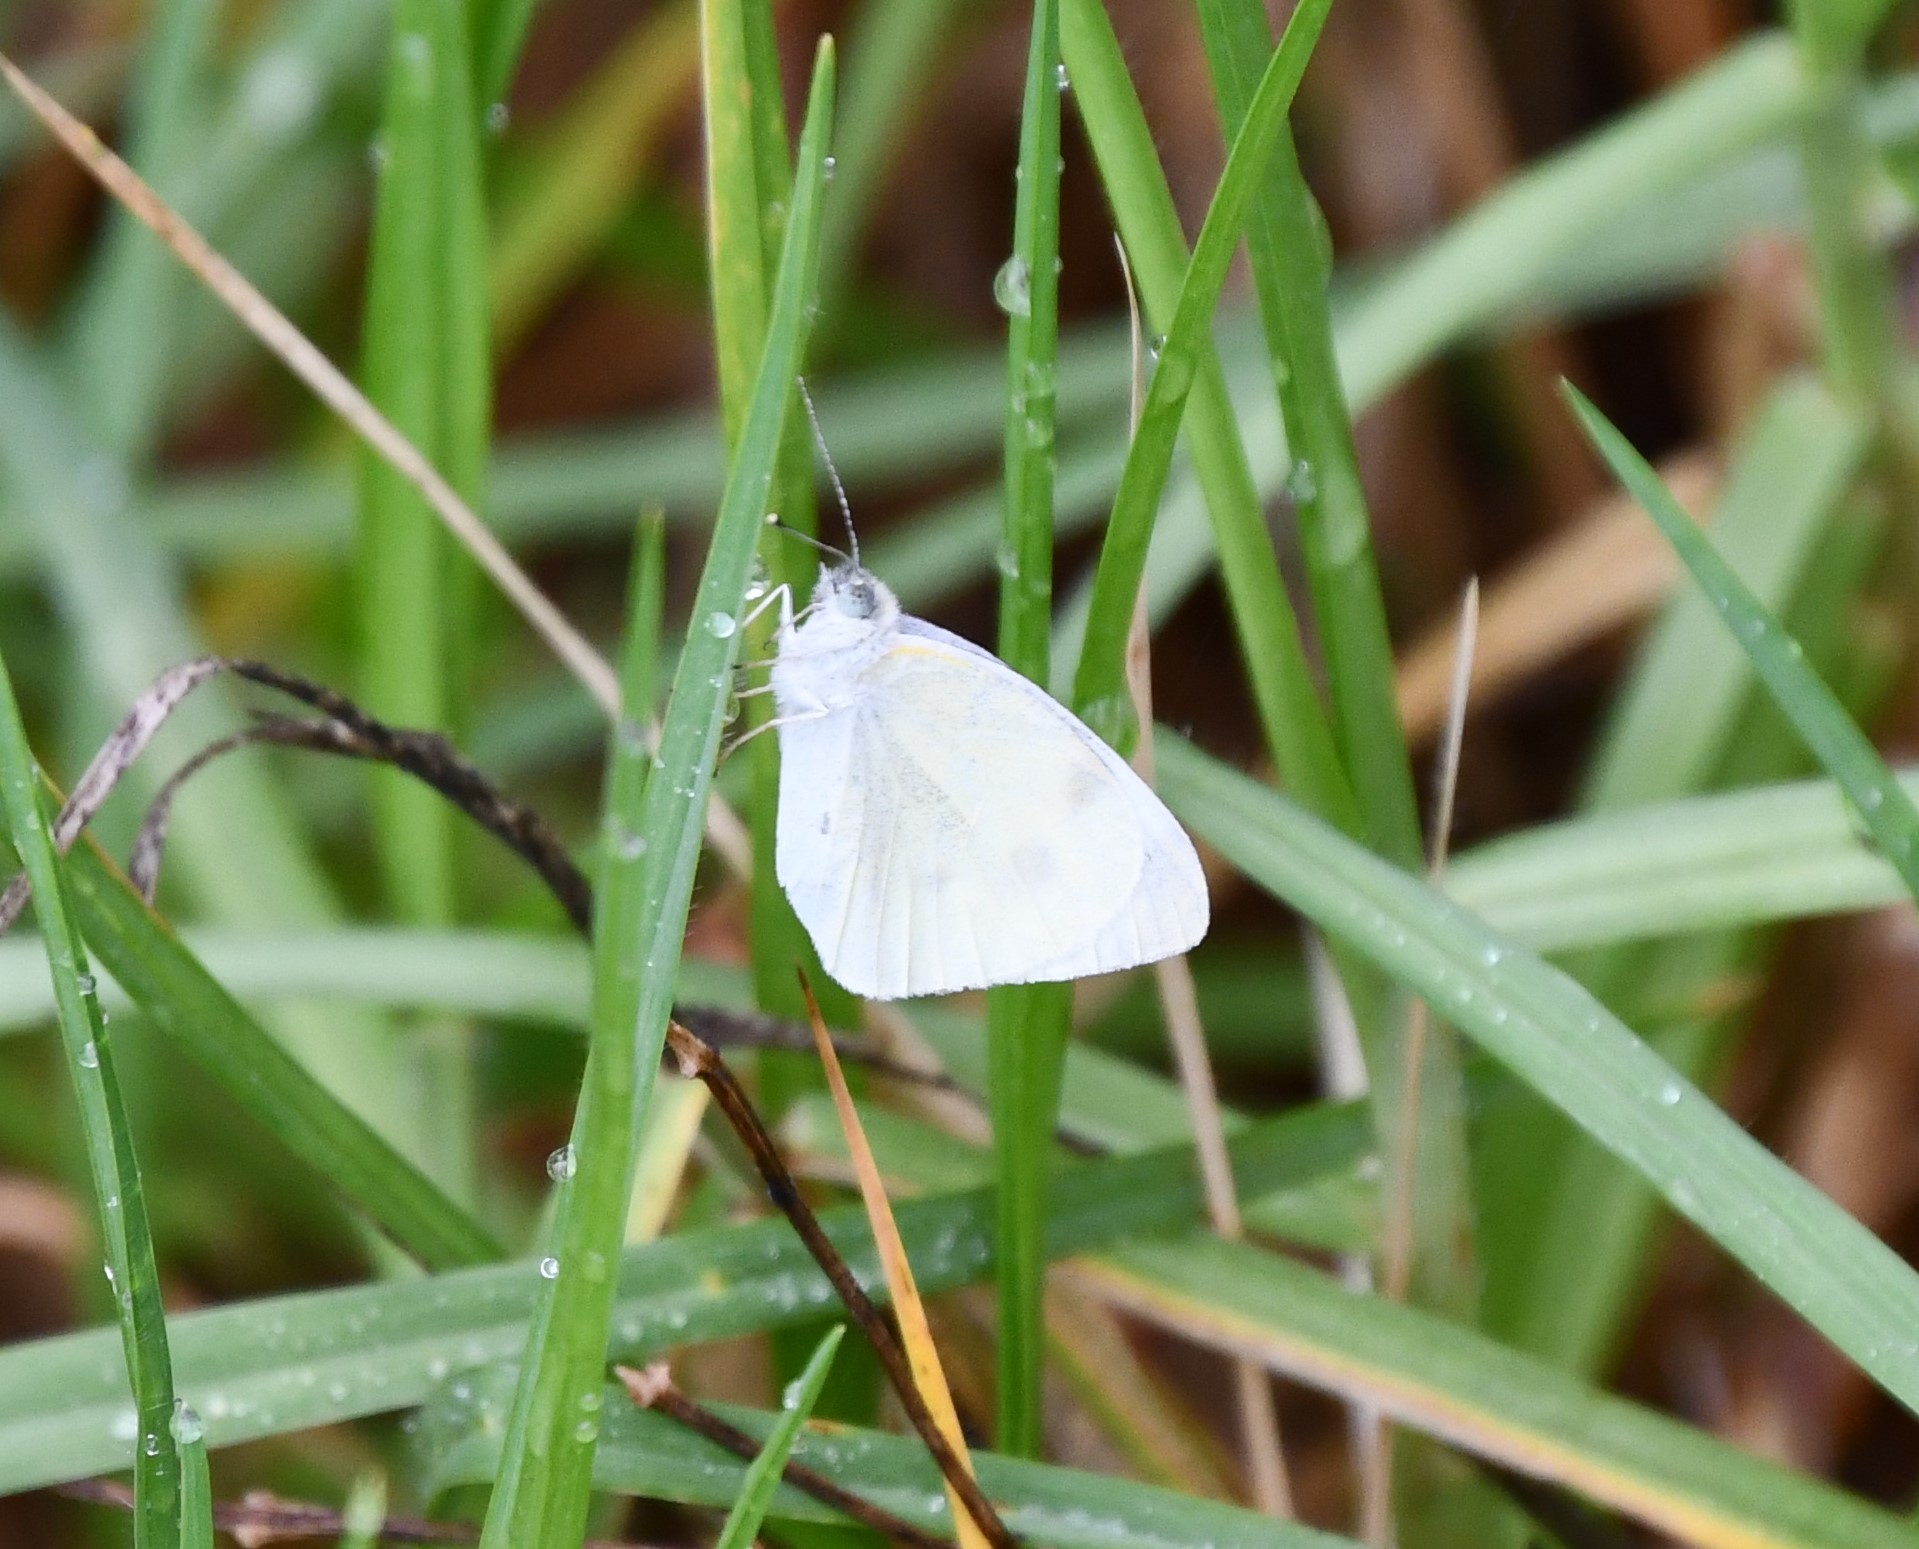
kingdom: Animalia
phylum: Arthropoda
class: Insecta
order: Lepidoptera
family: Pieridae
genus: Pieris
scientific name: Pieris rapae
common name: Small white
